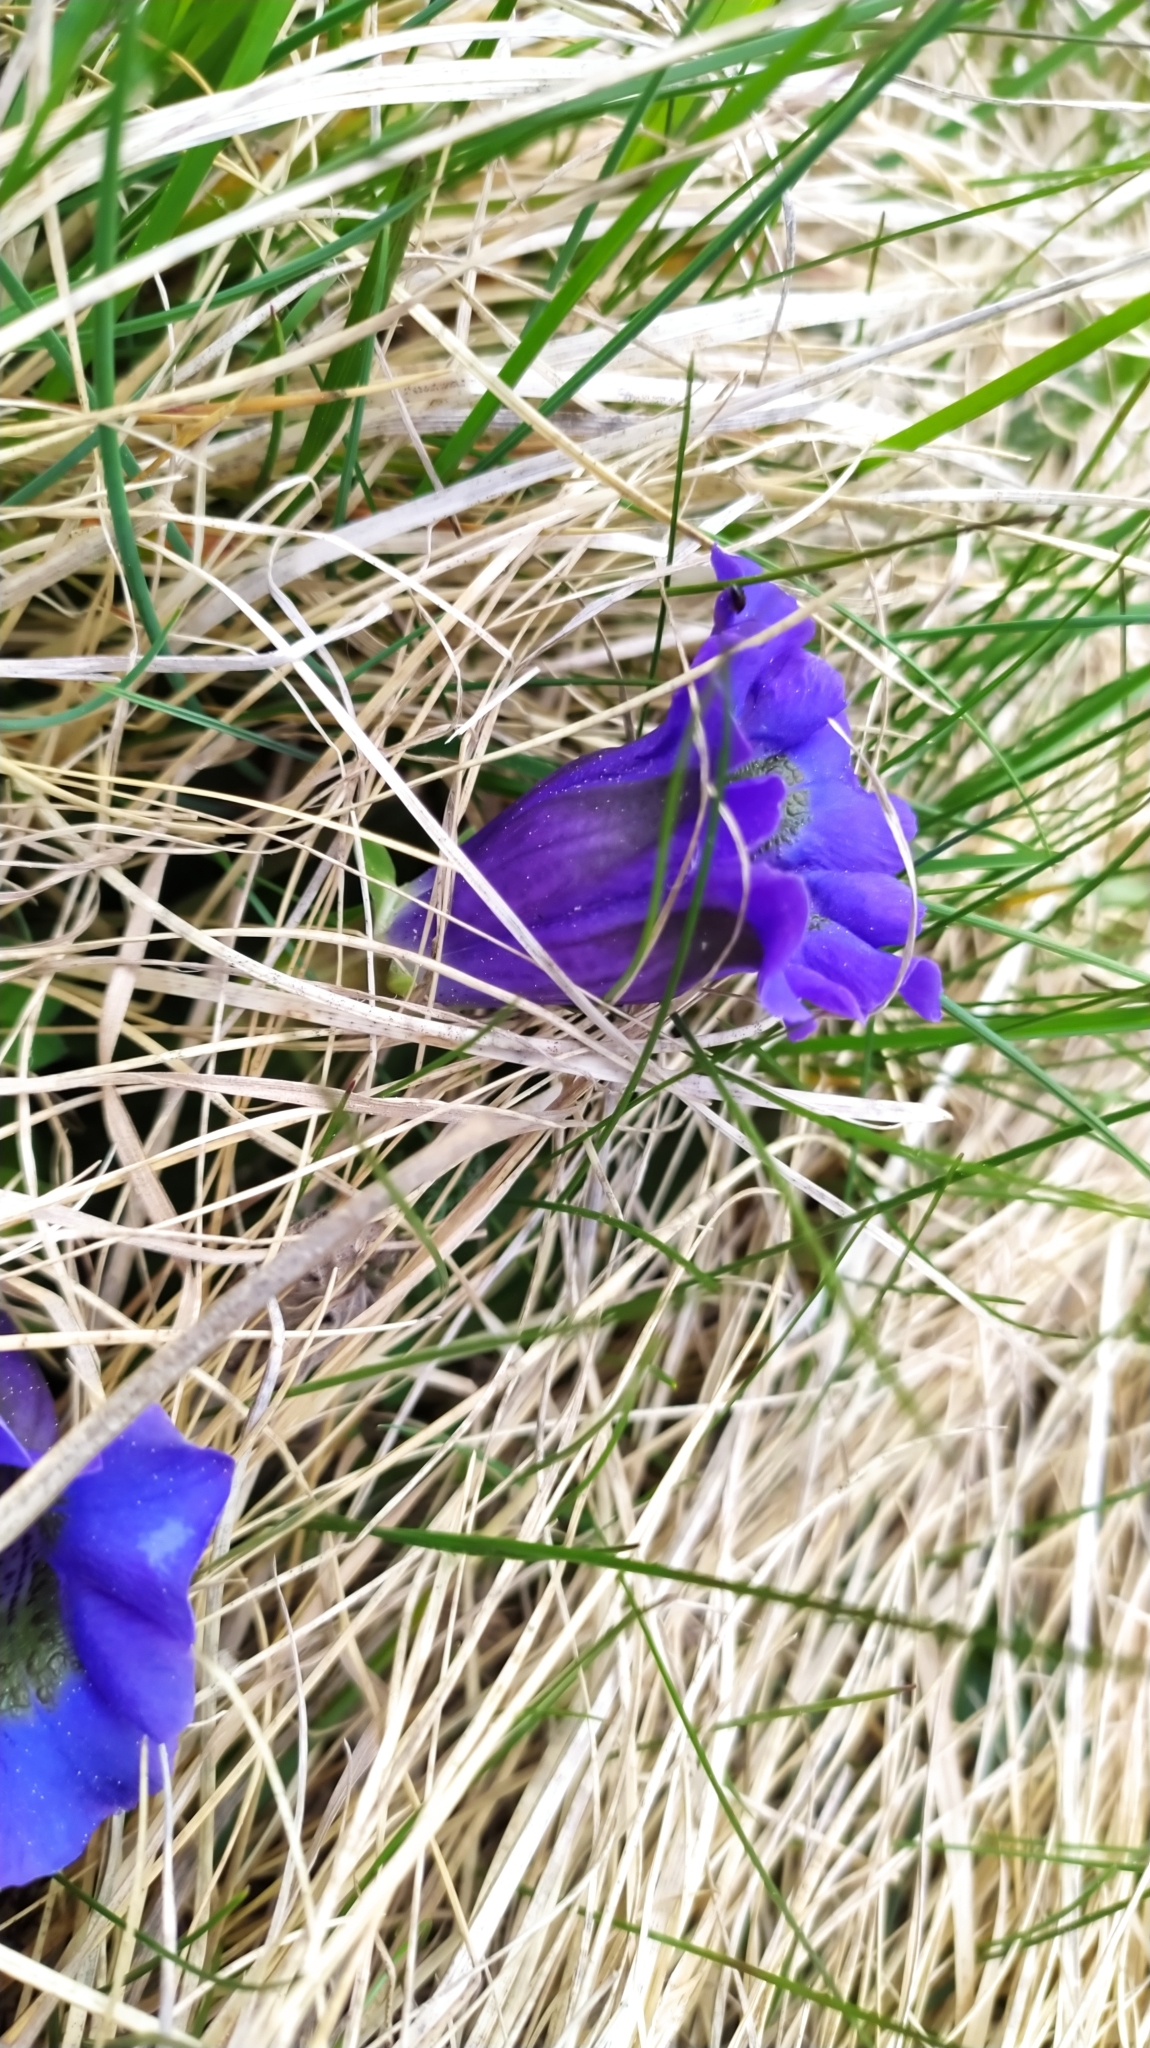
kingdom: Plantae
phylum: Tracheophyta
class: Magnoliopsida
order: Gentianales
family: Gentianaceae
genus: Gentiana
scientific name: Gentiana acaulis
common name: Trumpet gentian
